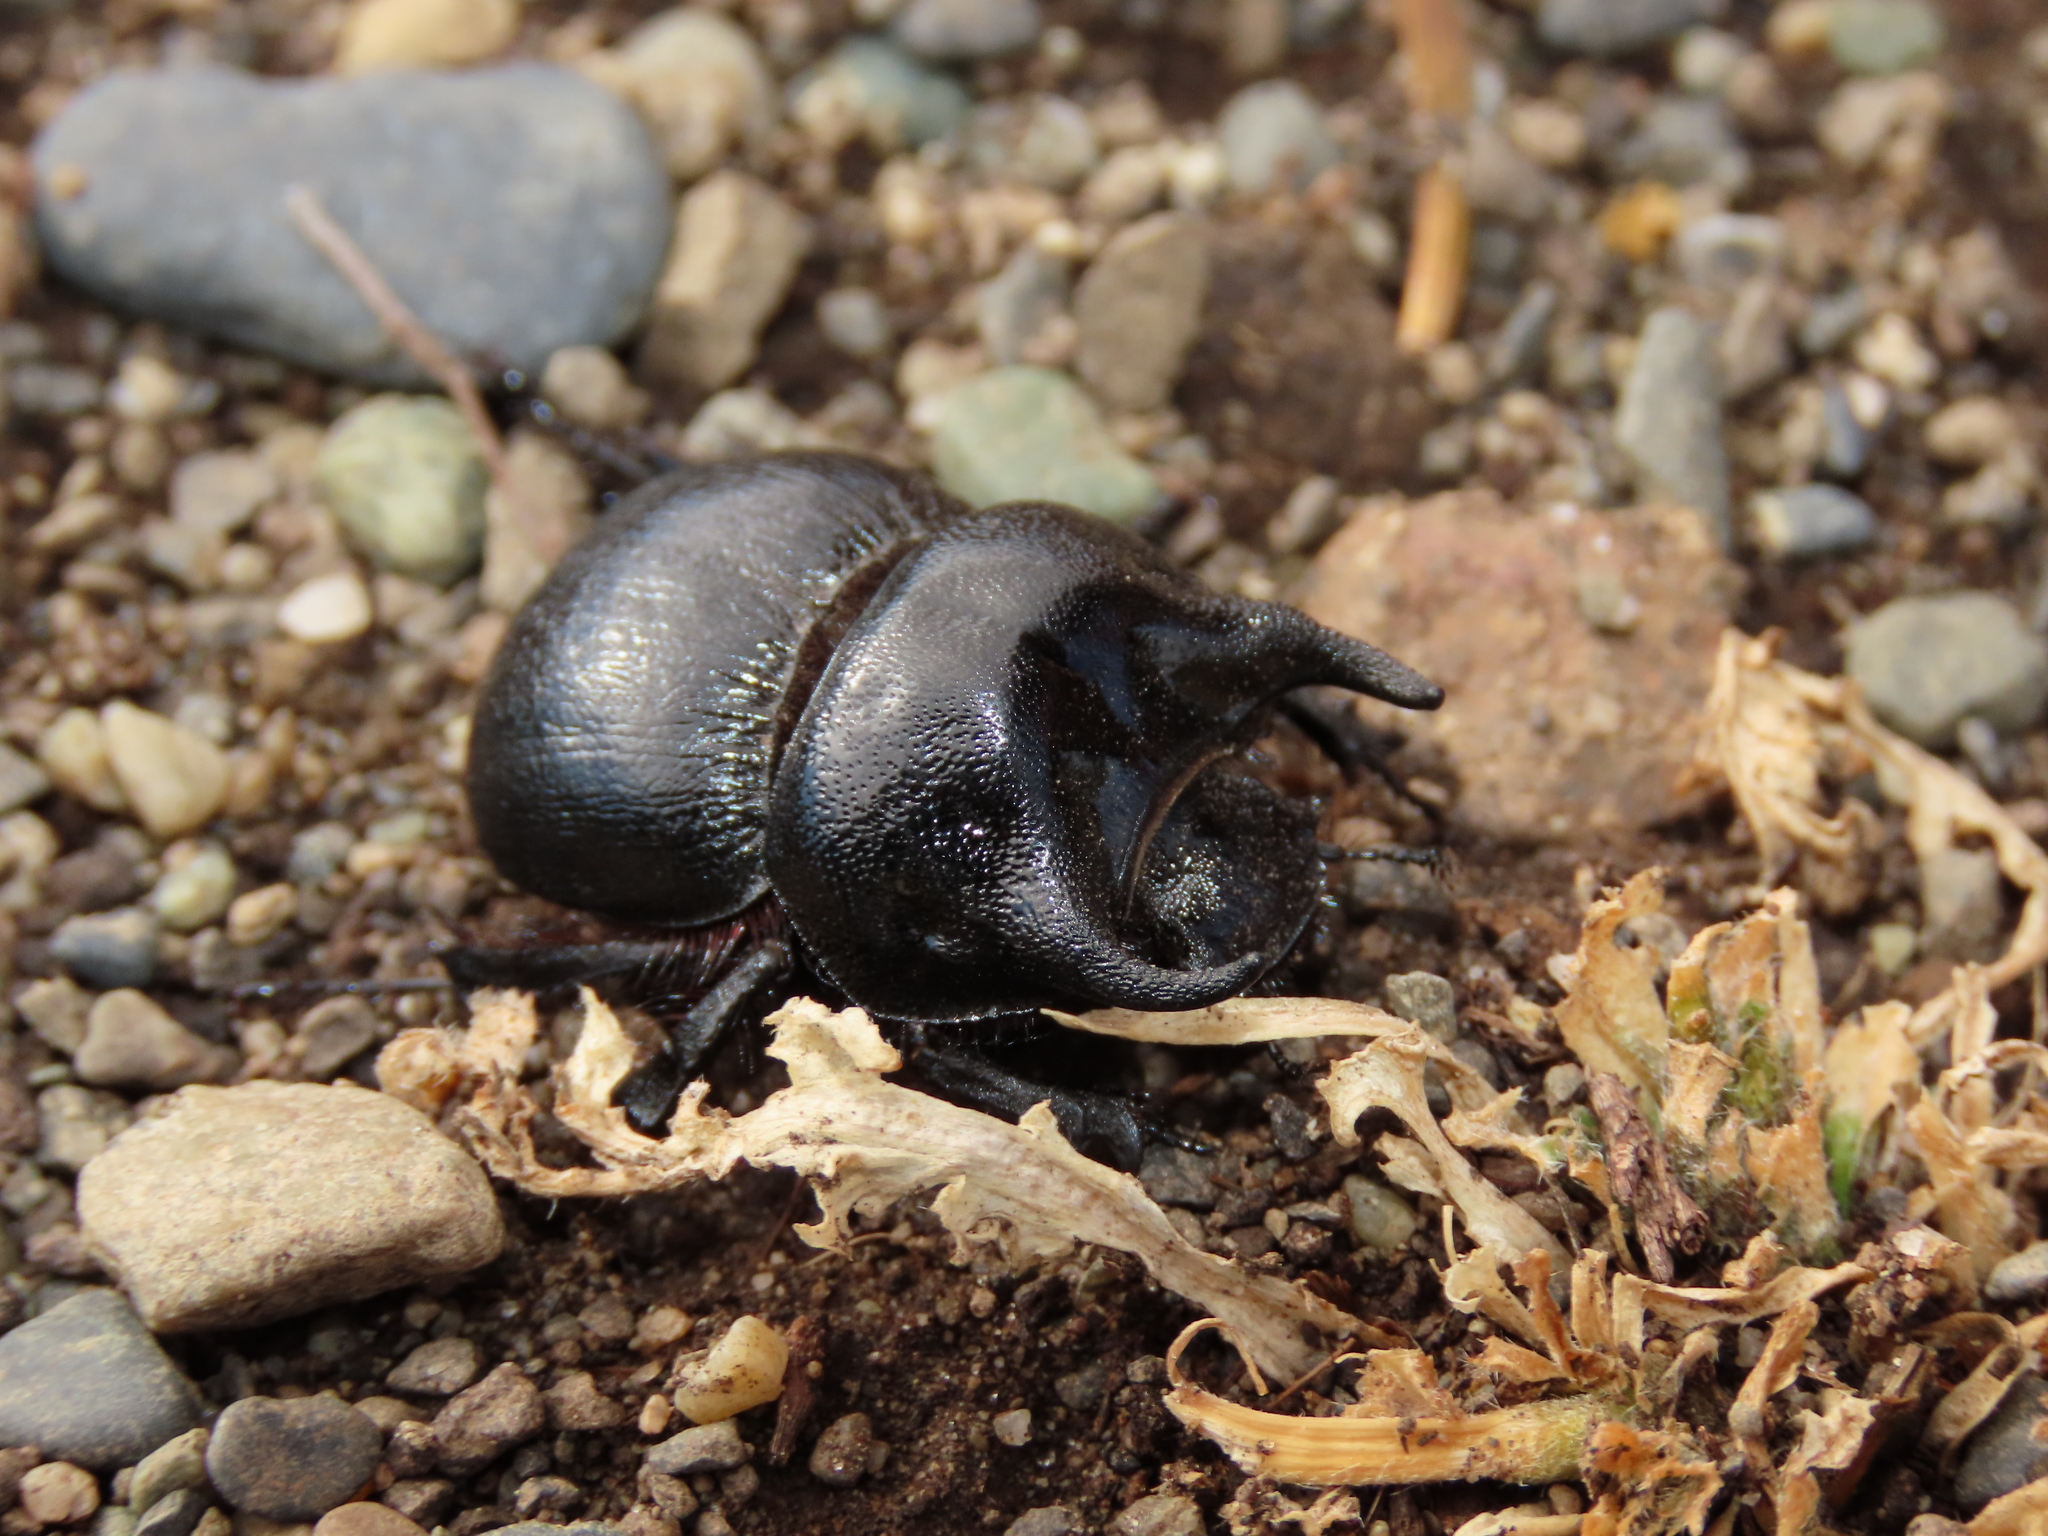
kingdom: Animalia
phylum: Arthropoda
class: Insecta
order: Coleoptera
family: Geotrupidae
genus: Taurocerastes
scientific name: Taurocerastes patagonicus
